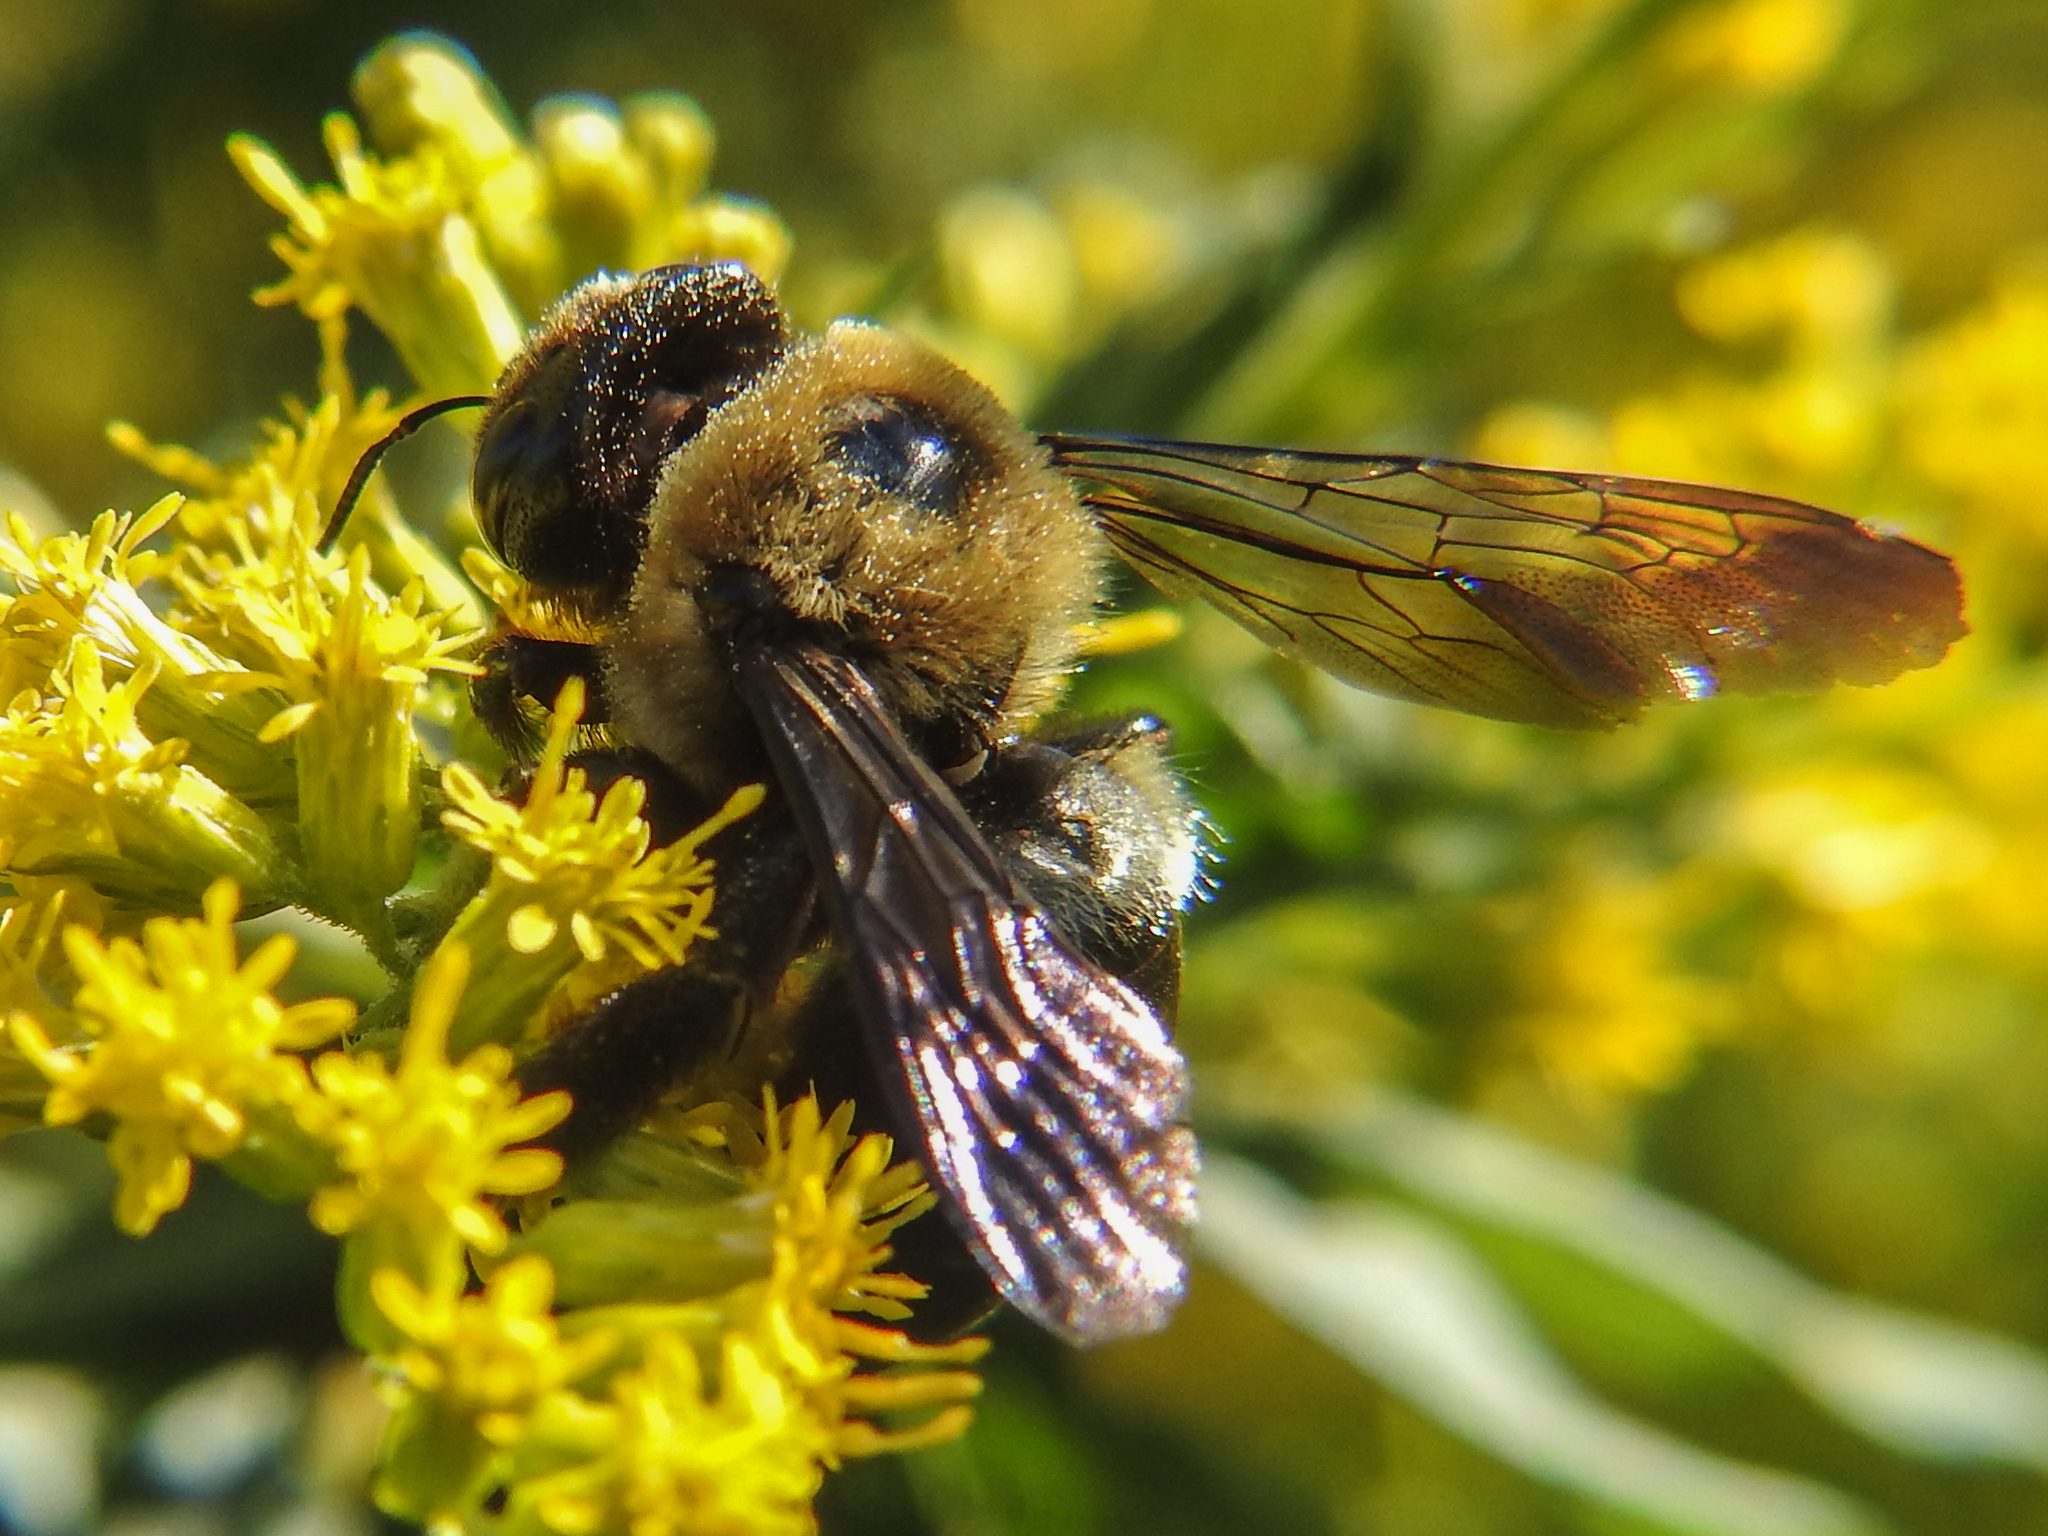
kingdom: Animalia
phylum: Arthropoda
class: Insecta
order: Hymenoptera
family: Apidae
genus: Xylocopa
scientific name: Xylocopa virginica
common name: Carpenter bee
